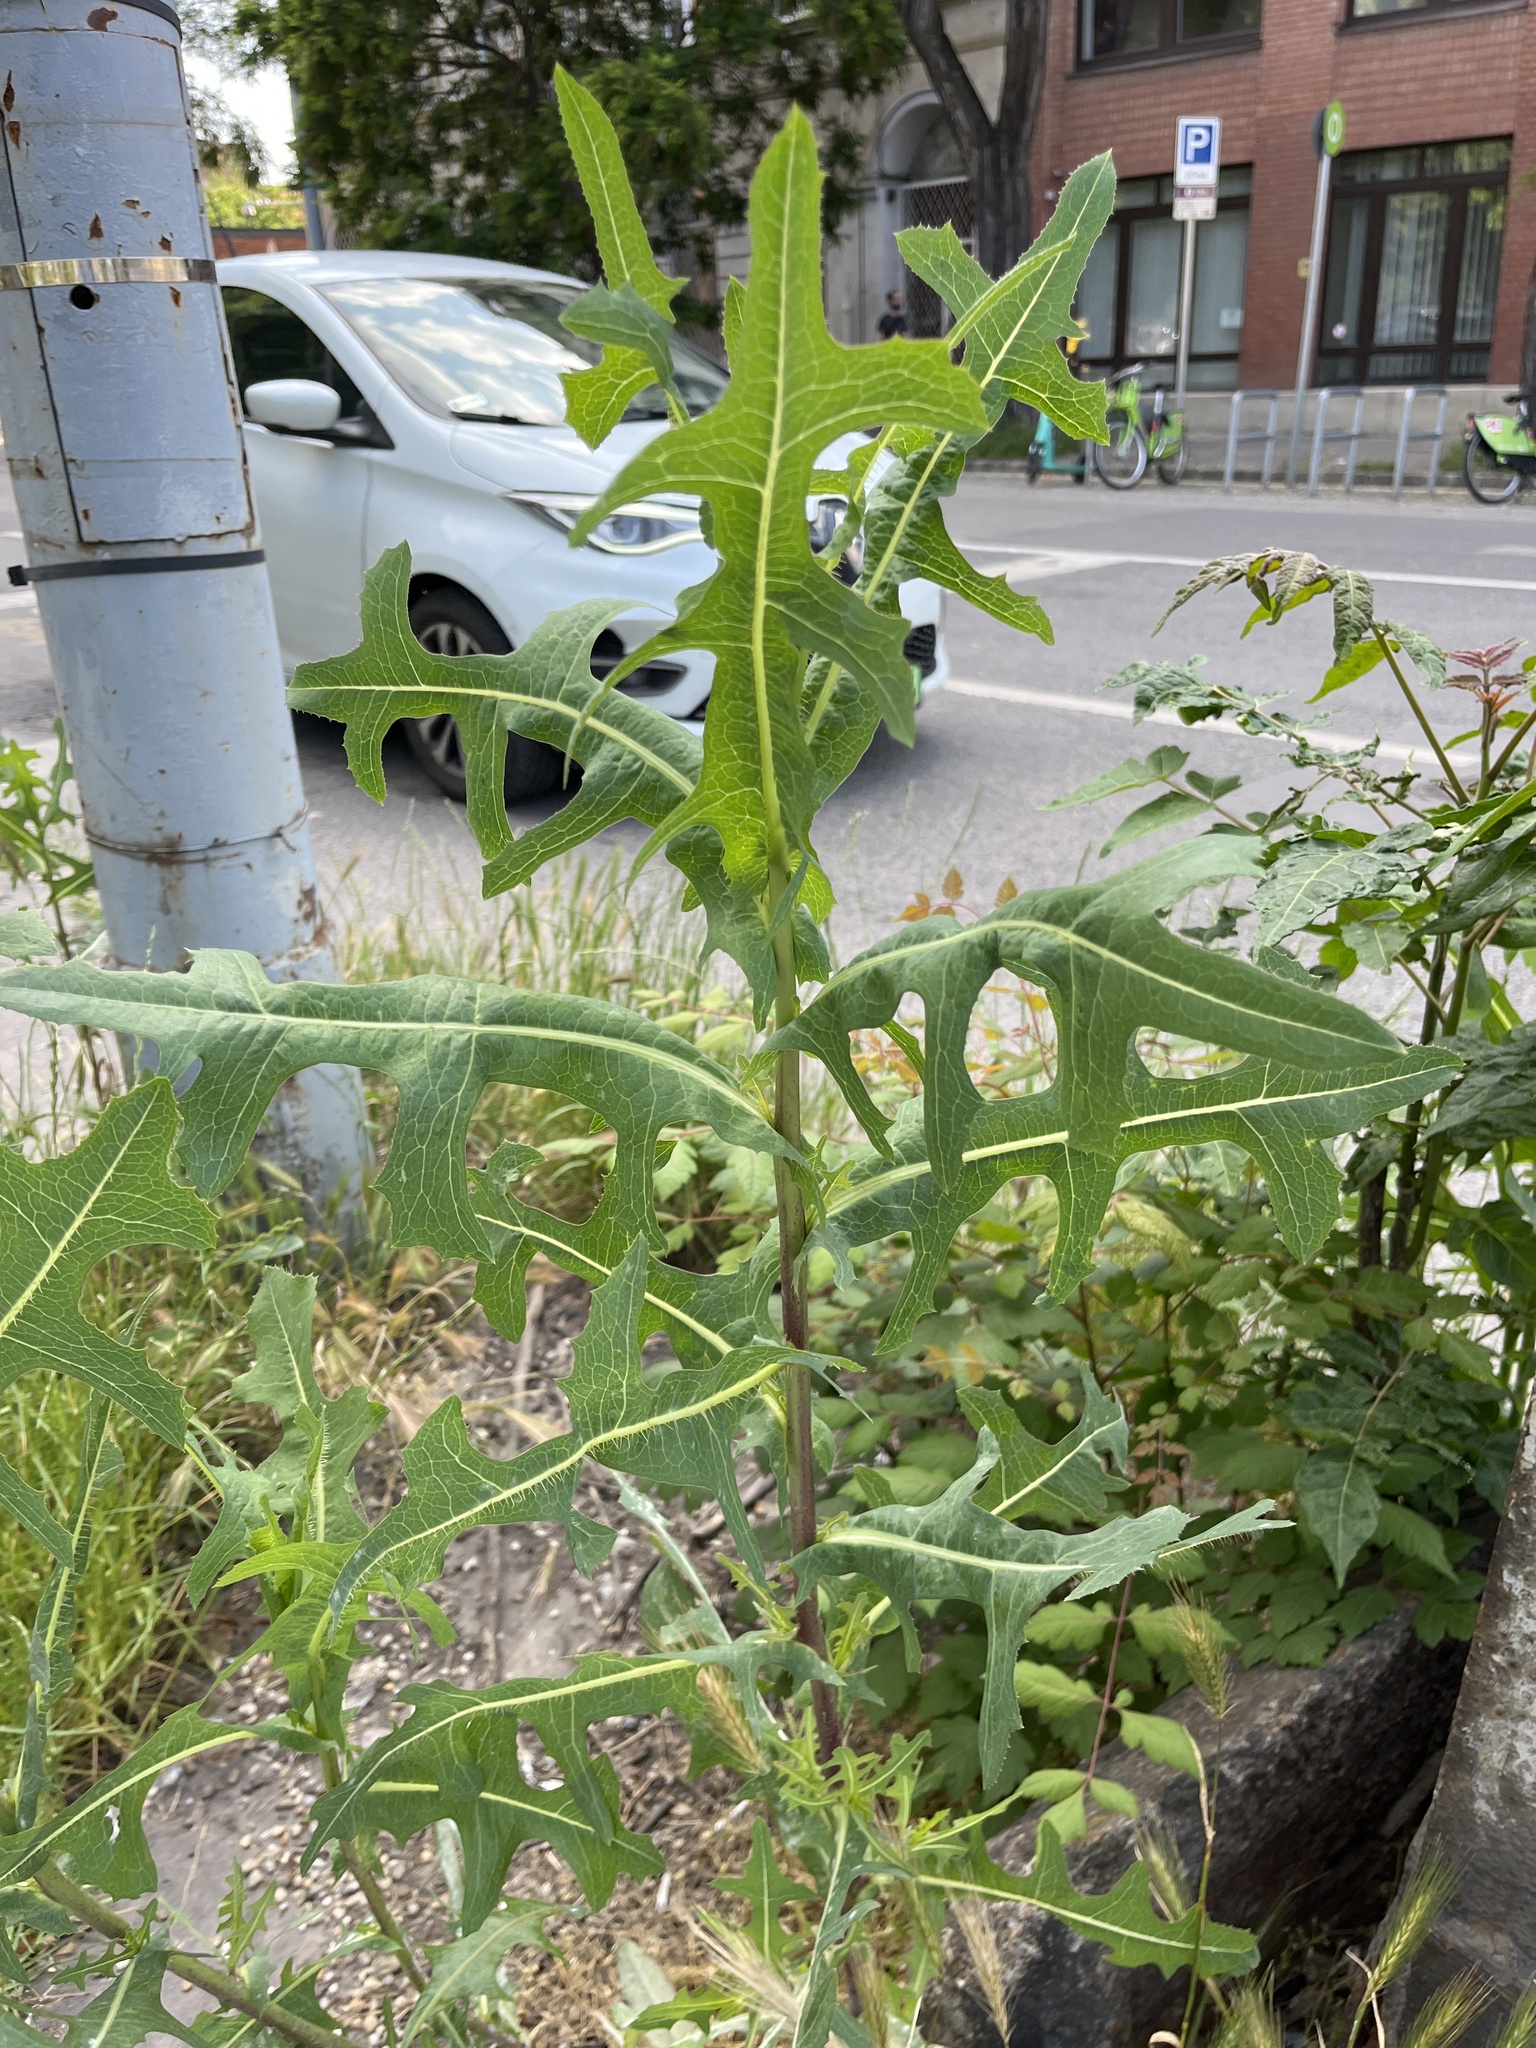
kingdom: Plantae
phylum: Tracheophyta
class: Magnoliopsida
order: Asterales
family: Asteraceae
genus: Lactuca
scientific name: Lactuca serriola
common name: Prickly lettuce
